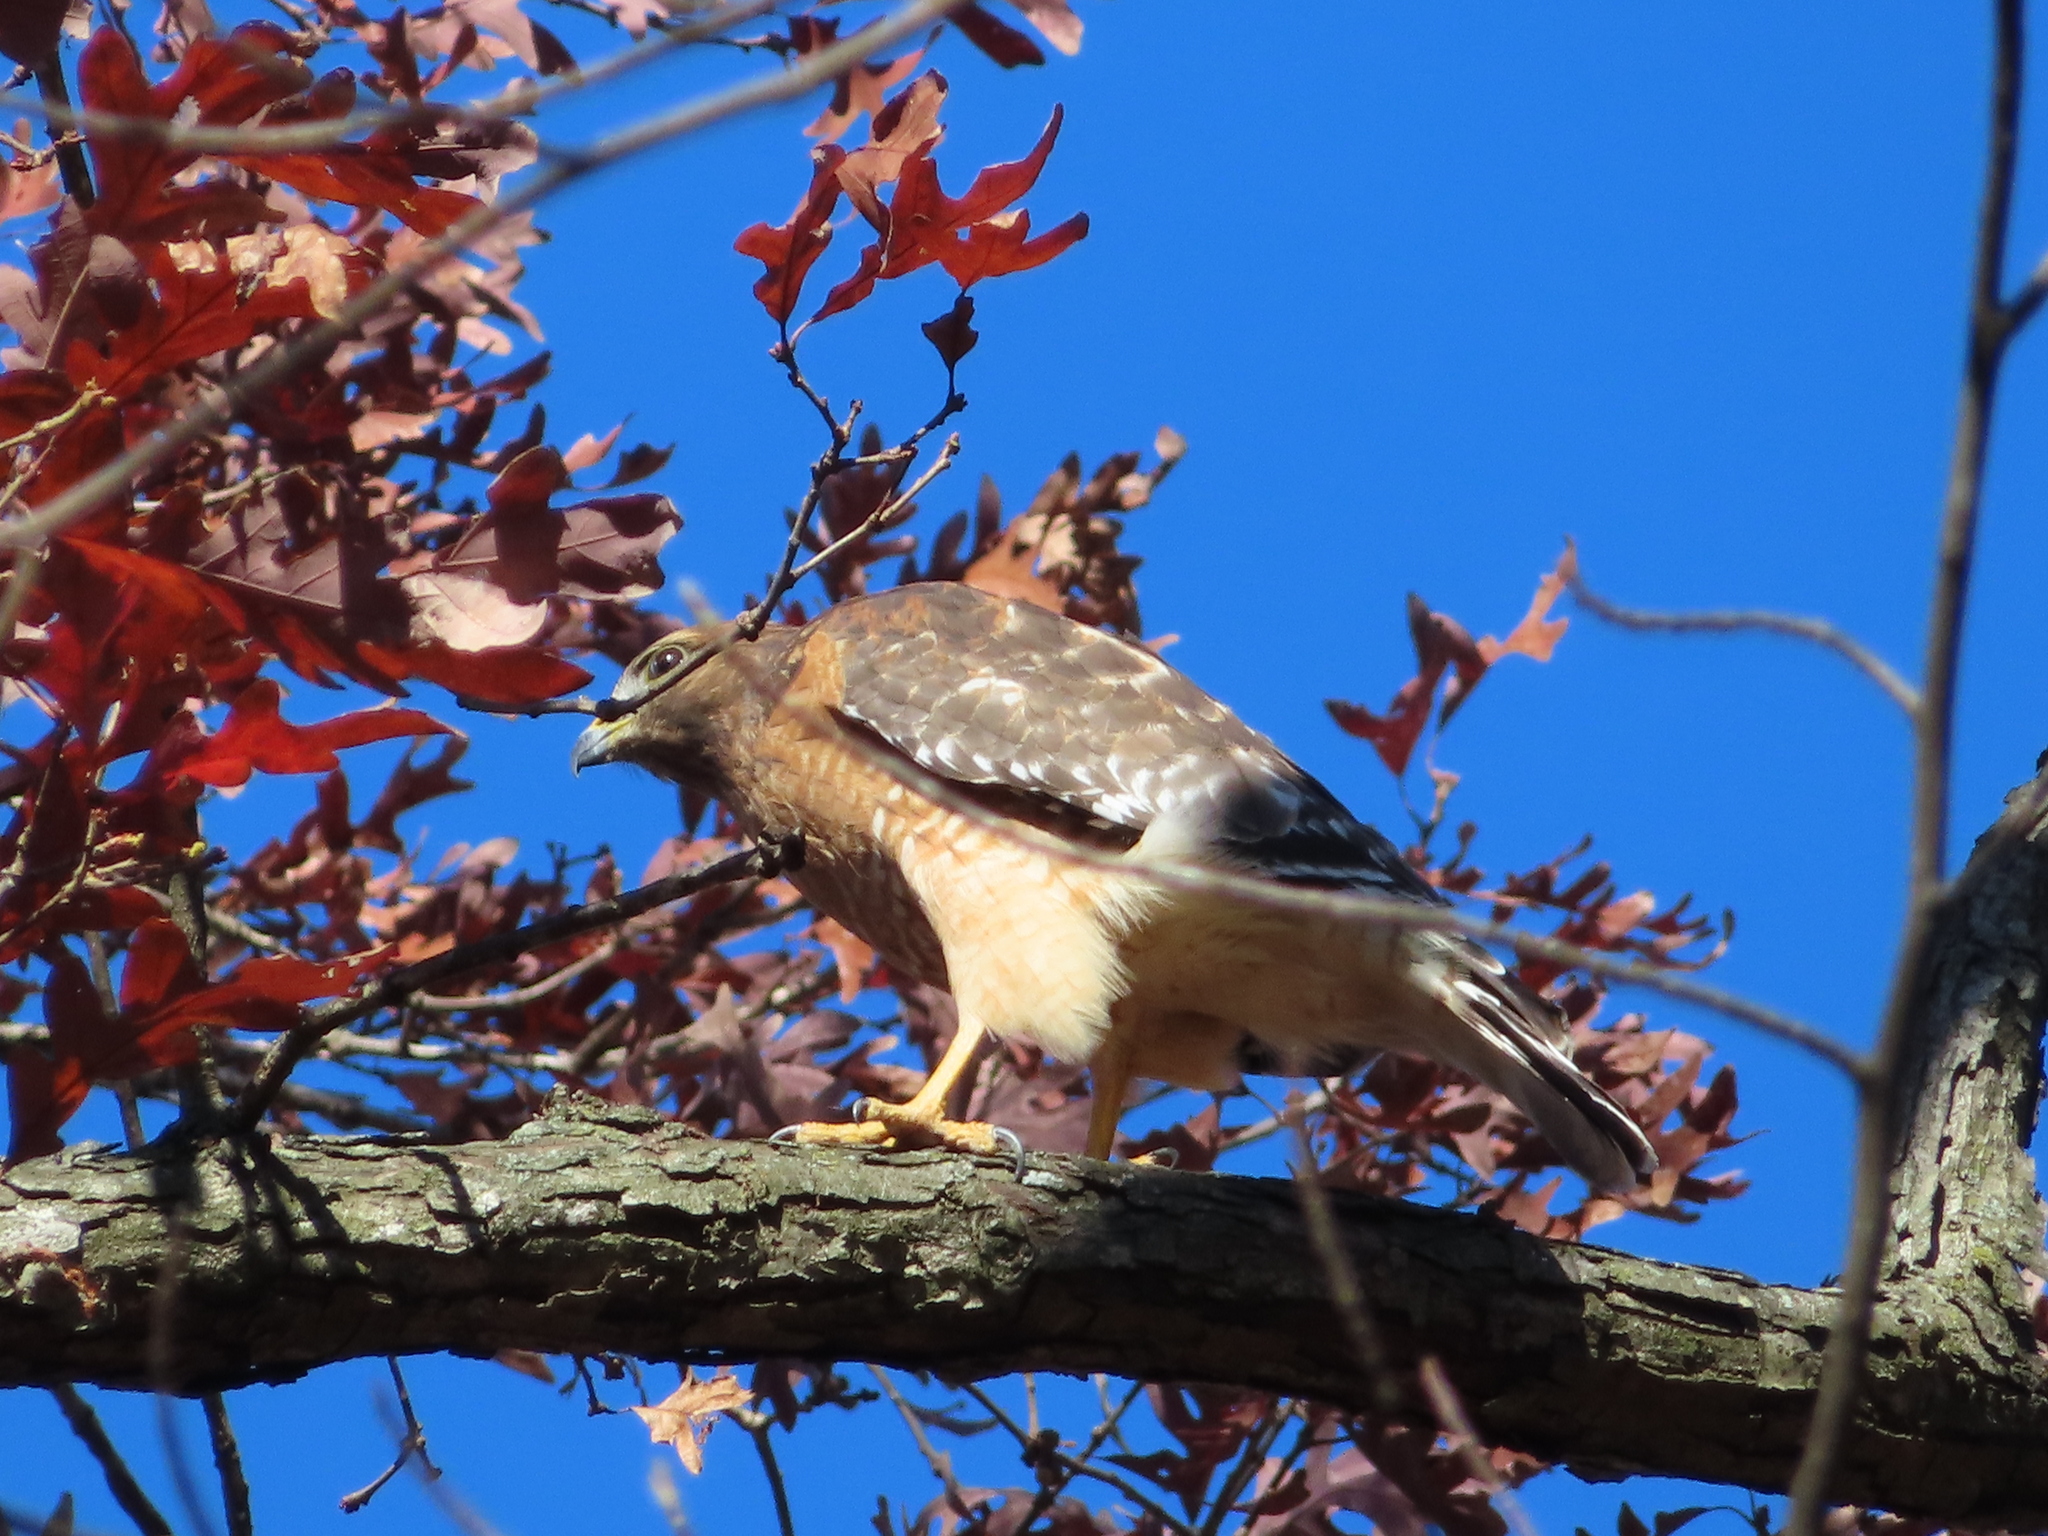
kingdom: Animalia
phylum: Chordata
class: Aves
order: Accipitriformes
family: Accipitridae
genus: Buteo
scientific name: Buteo lineatus
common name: Red-shouldered hawk
